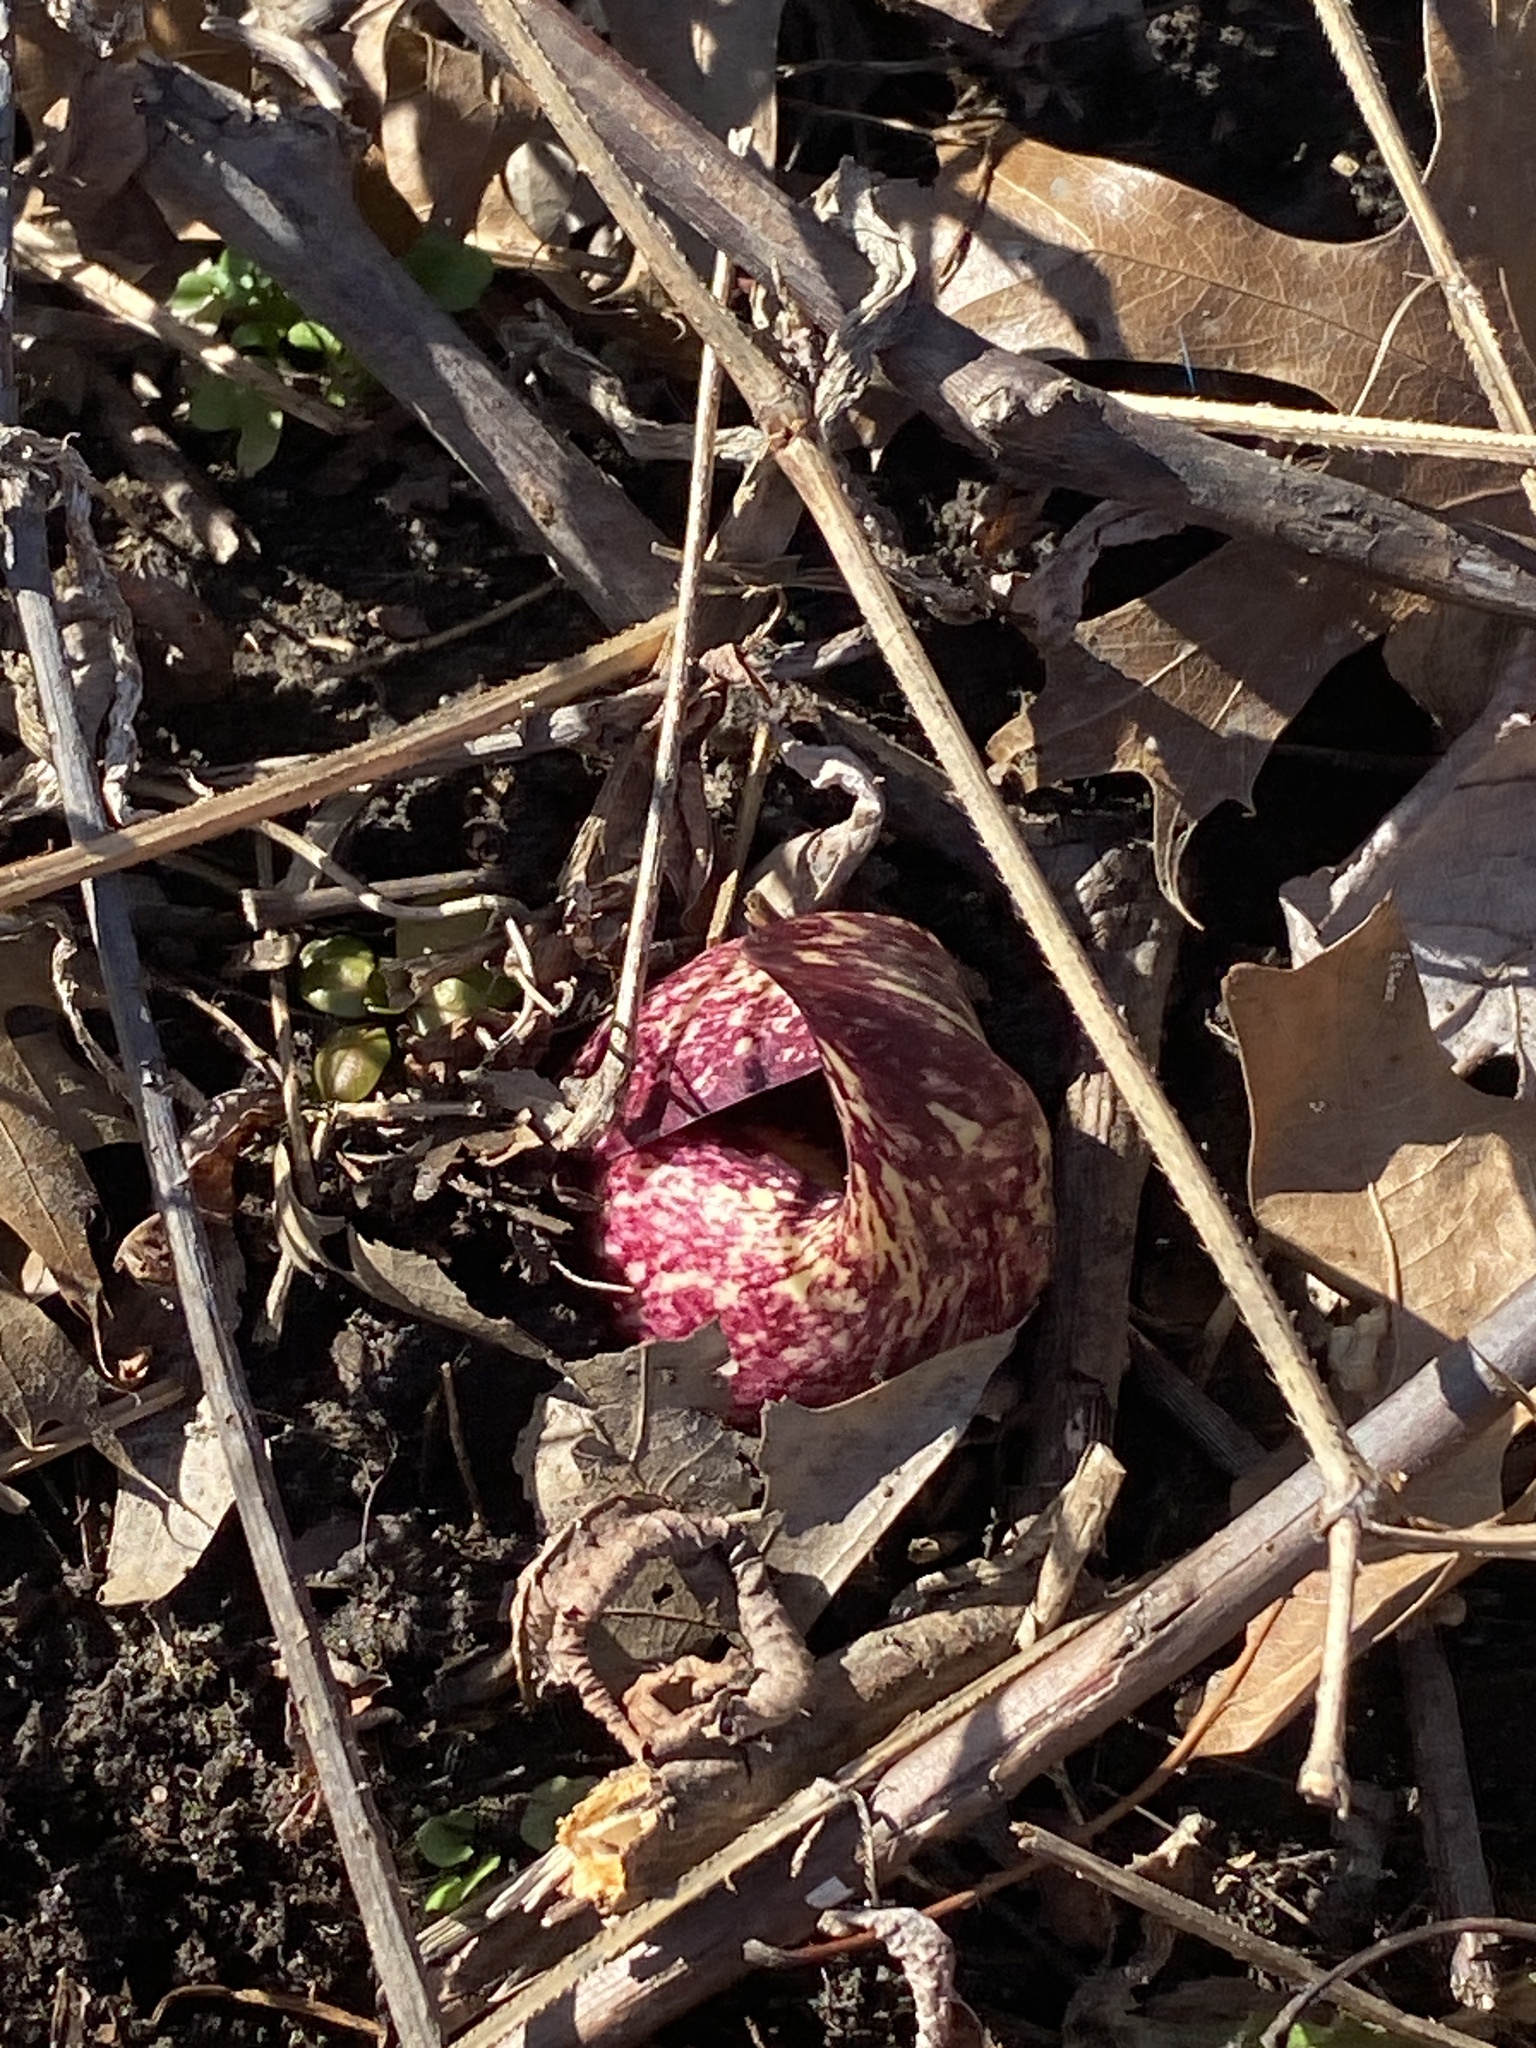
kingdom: Plantae
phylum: Tracheophyta
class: Liliopsida
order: Alismatales
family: Araceae
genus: Symplocarpus
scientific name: Symplocarpus foetidus
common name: Eastern skunk cabbage
